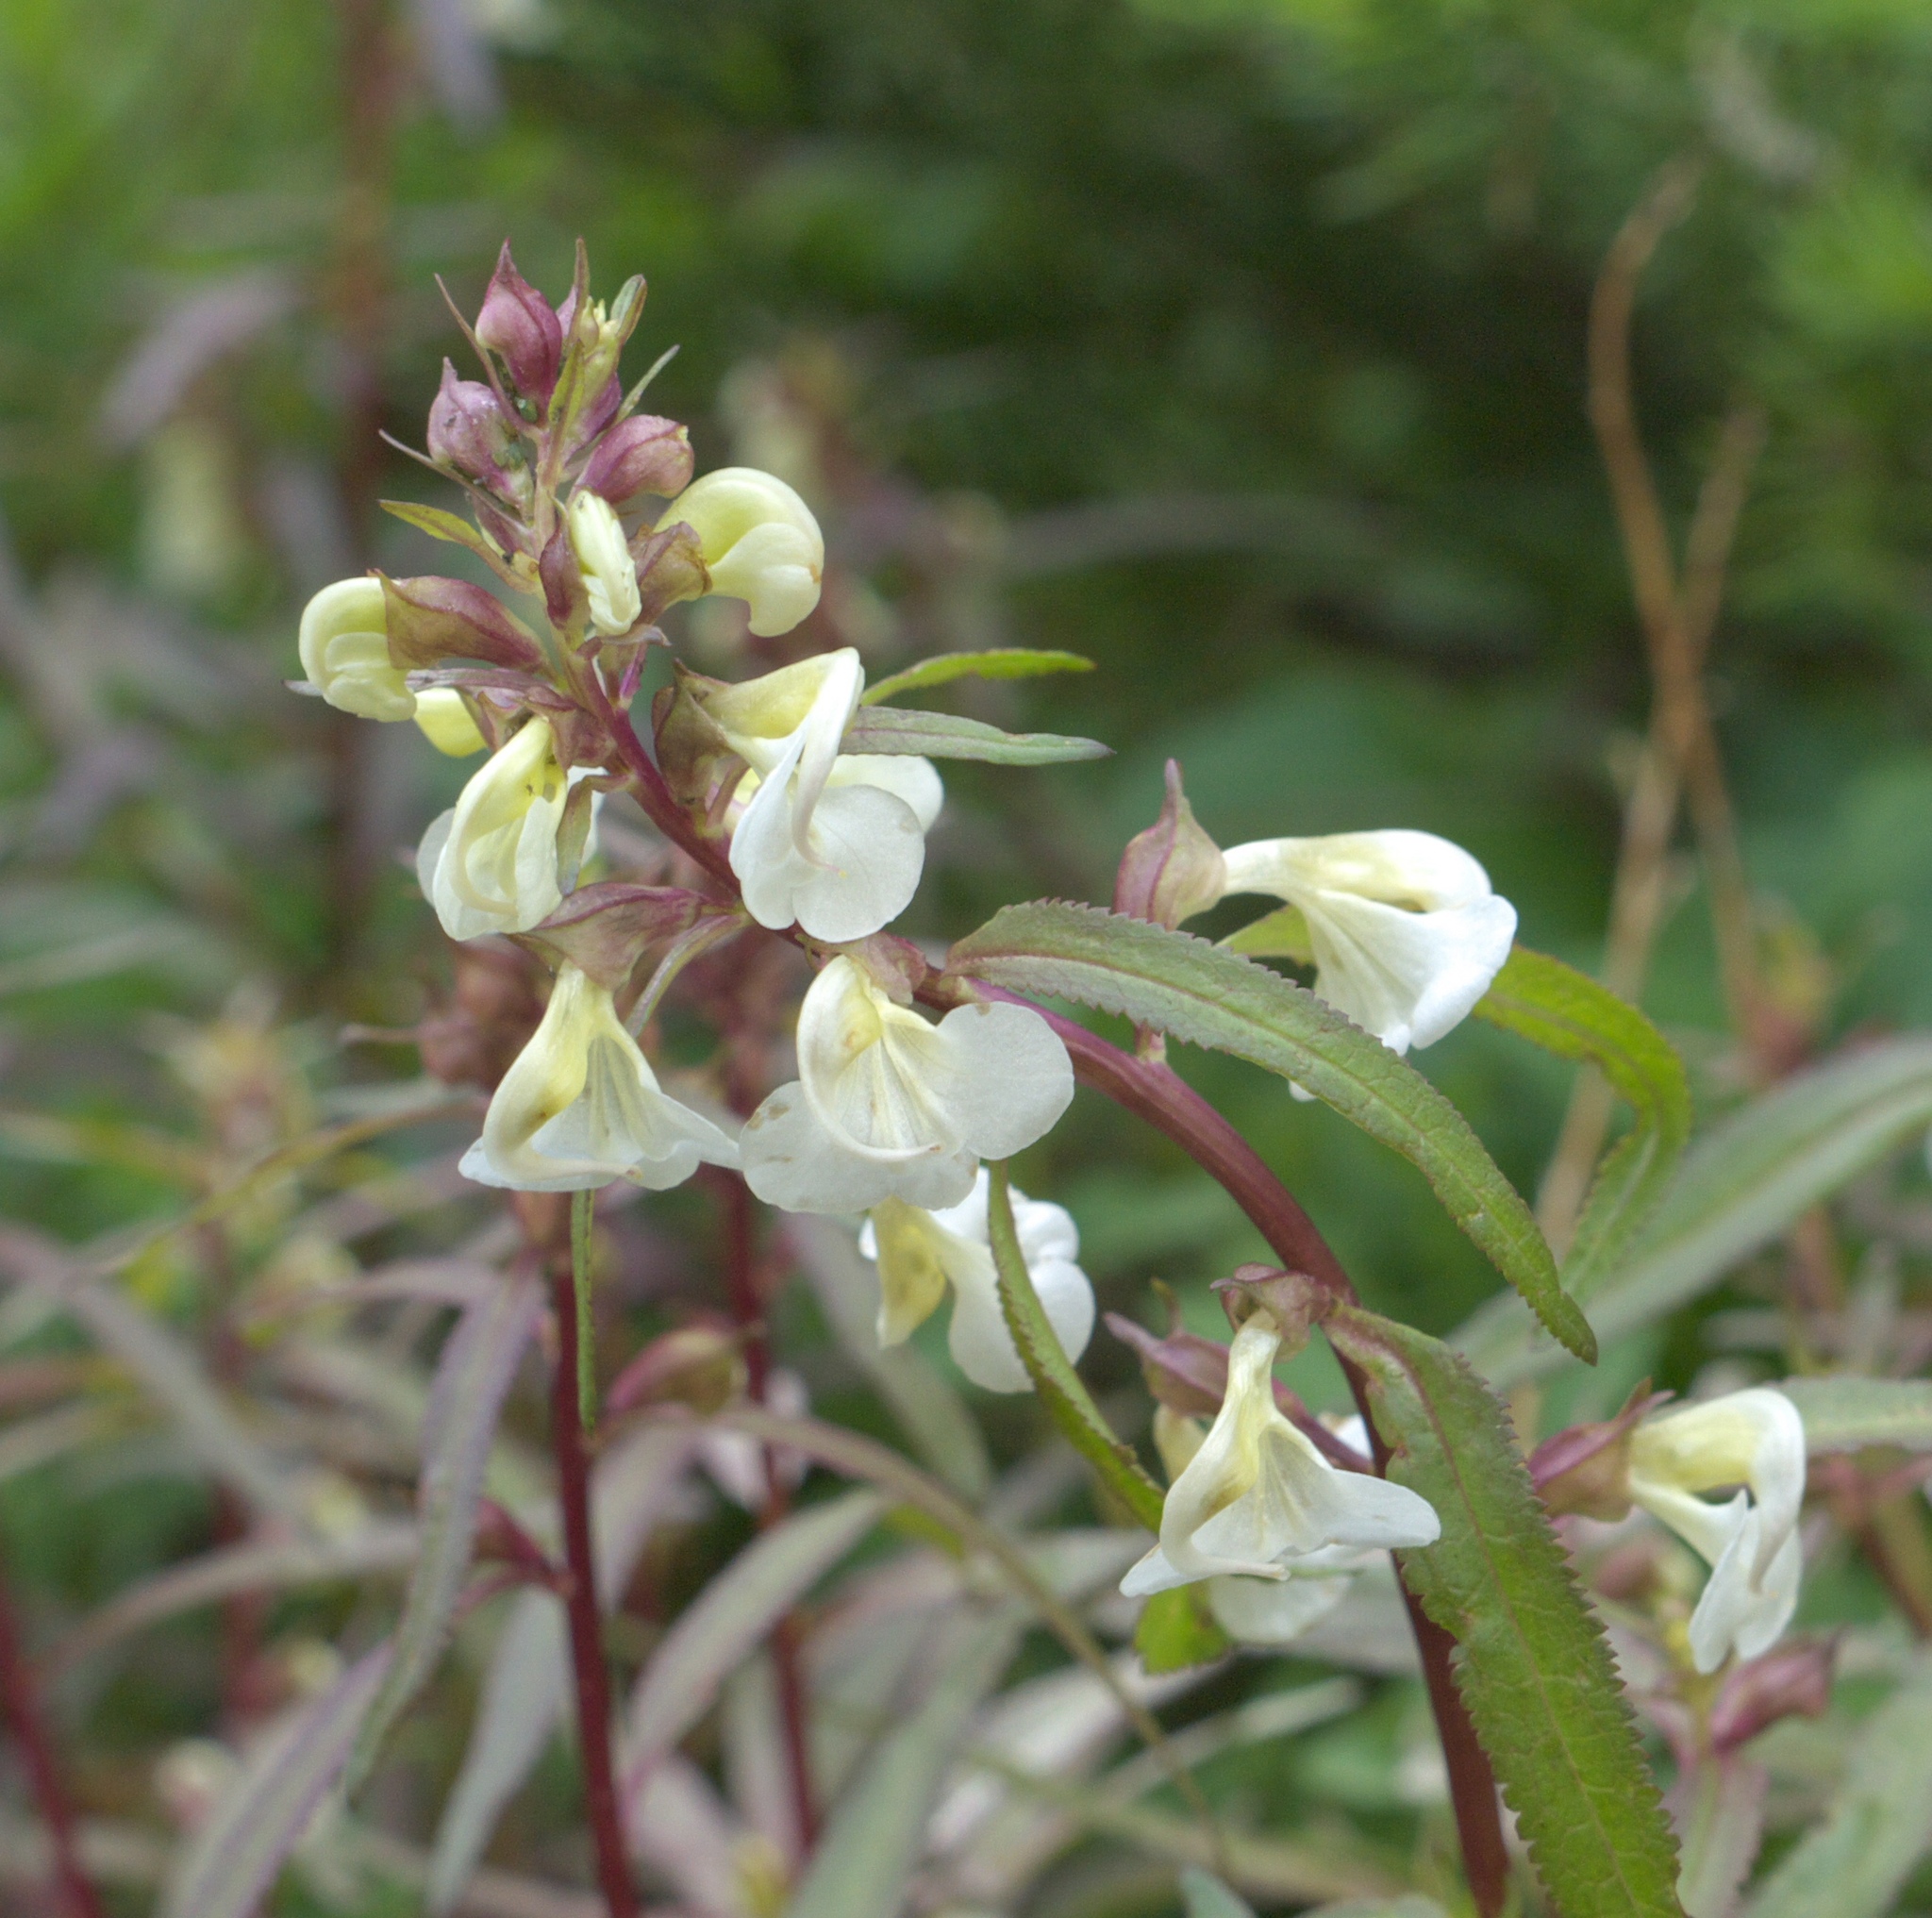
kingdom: Plantae
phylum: Tracheophyta
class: Magnoliopsida
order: Lamiales
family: Orobanchaceae
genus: Pedicularis
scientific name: Pedicularis racemosa
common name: Leafy lousewort
